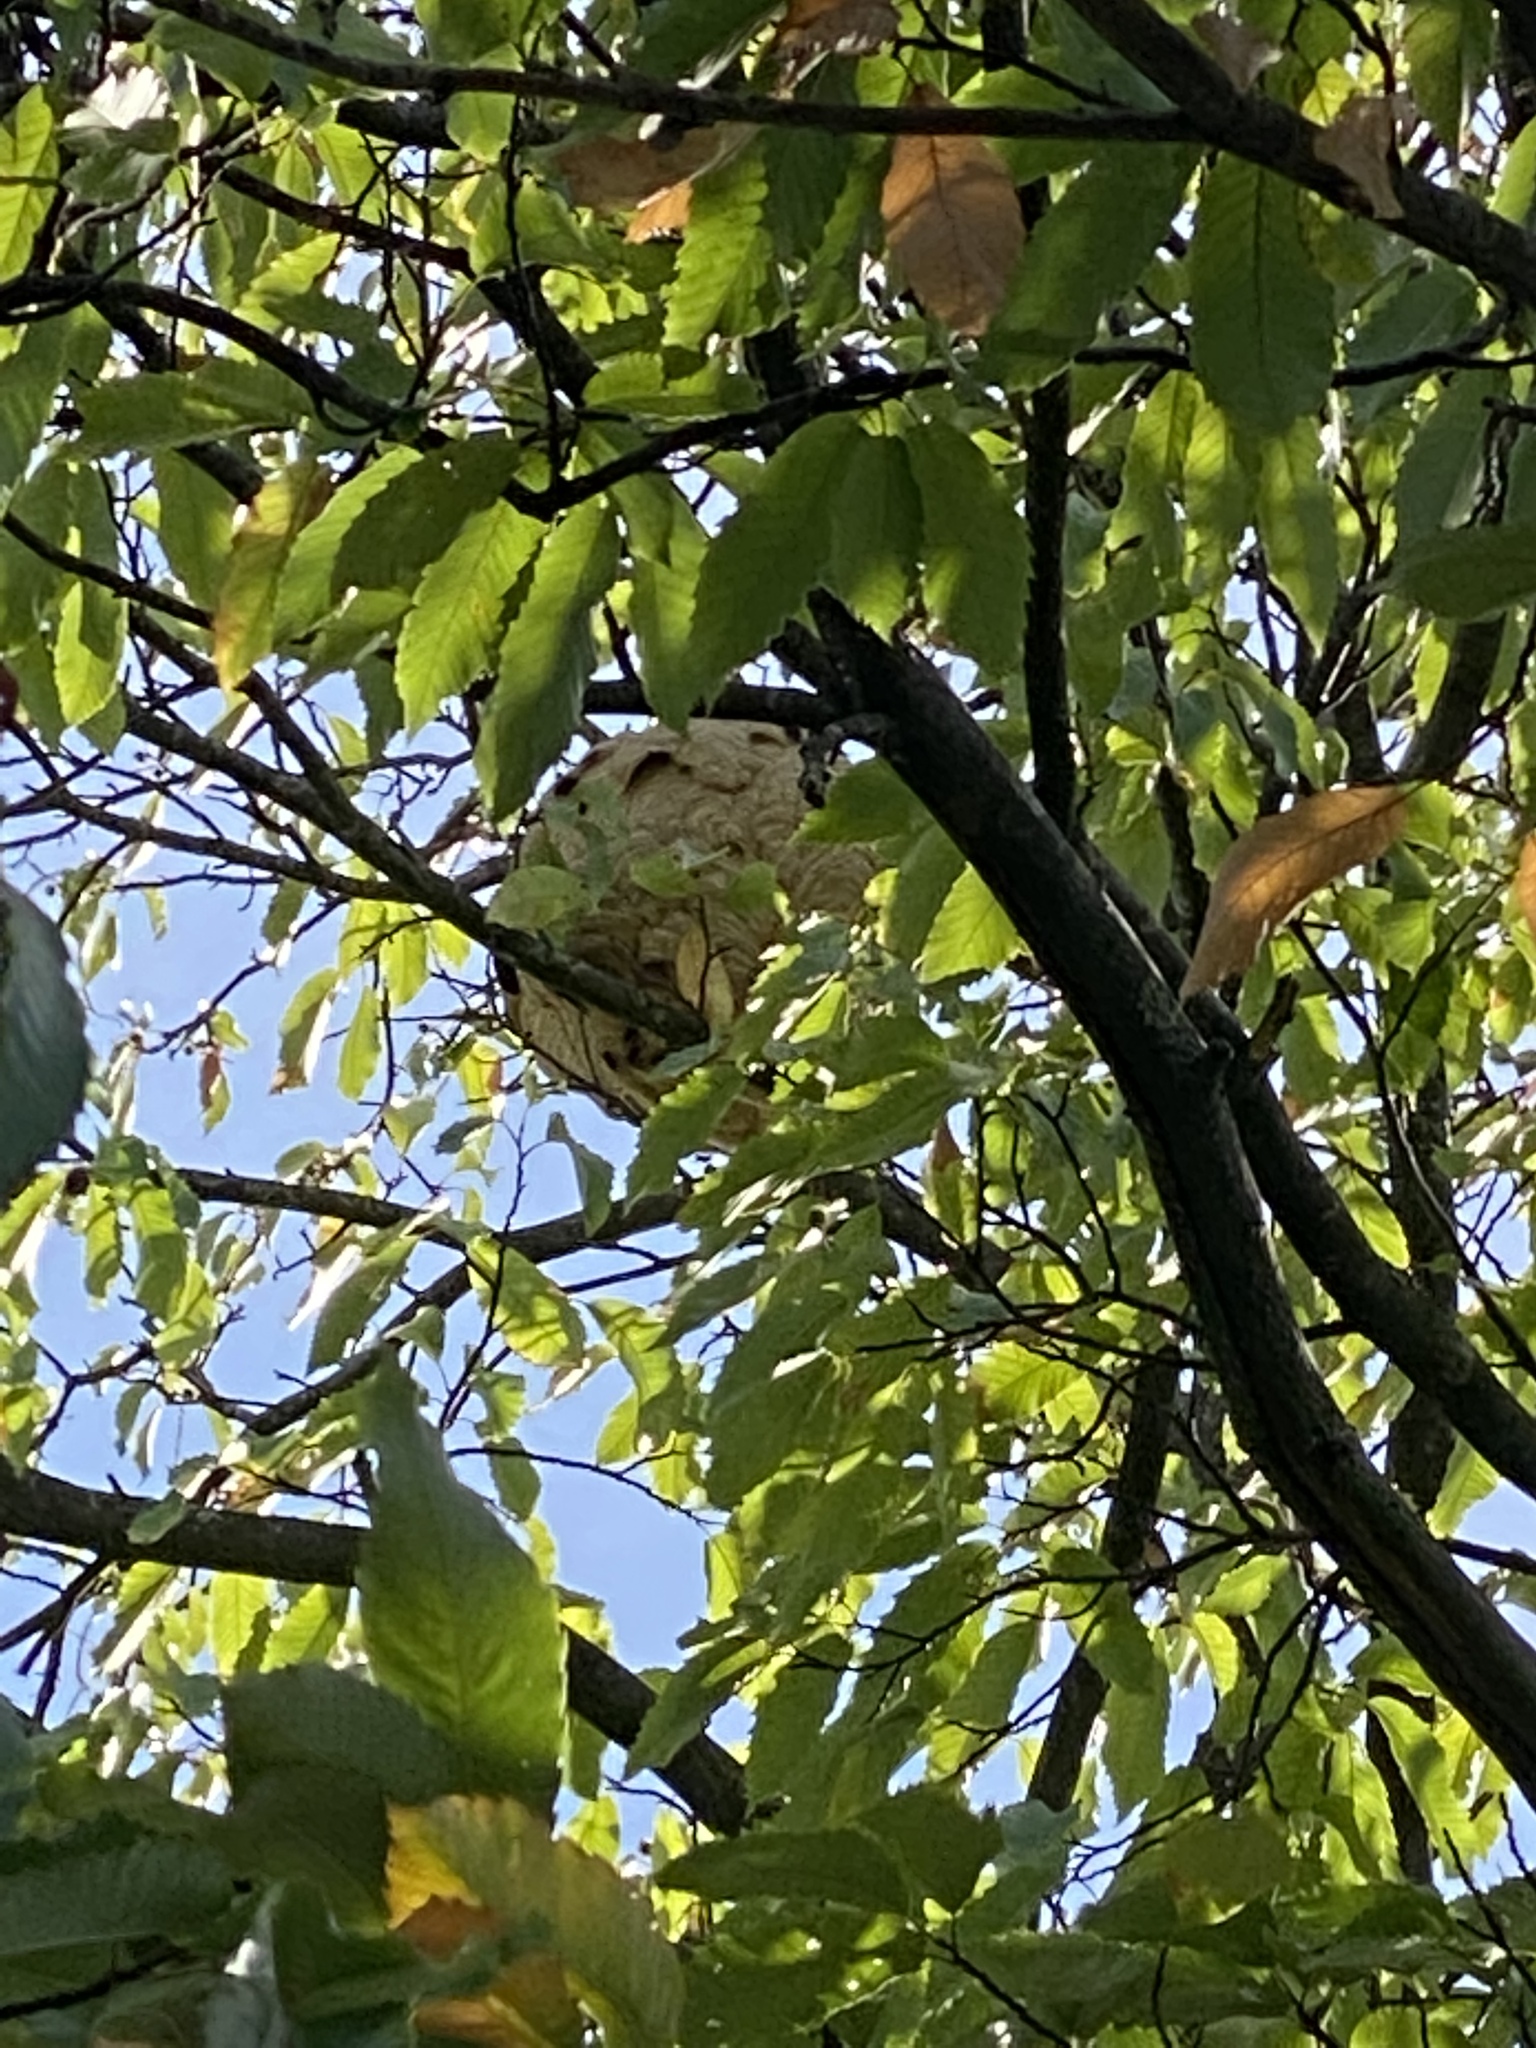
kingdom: Animalia
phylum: Arthropoda
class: Insecta
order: Hymenoptera
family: Vespidae
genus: Vespa
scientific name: Vespa velutina
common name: Asian hornet
